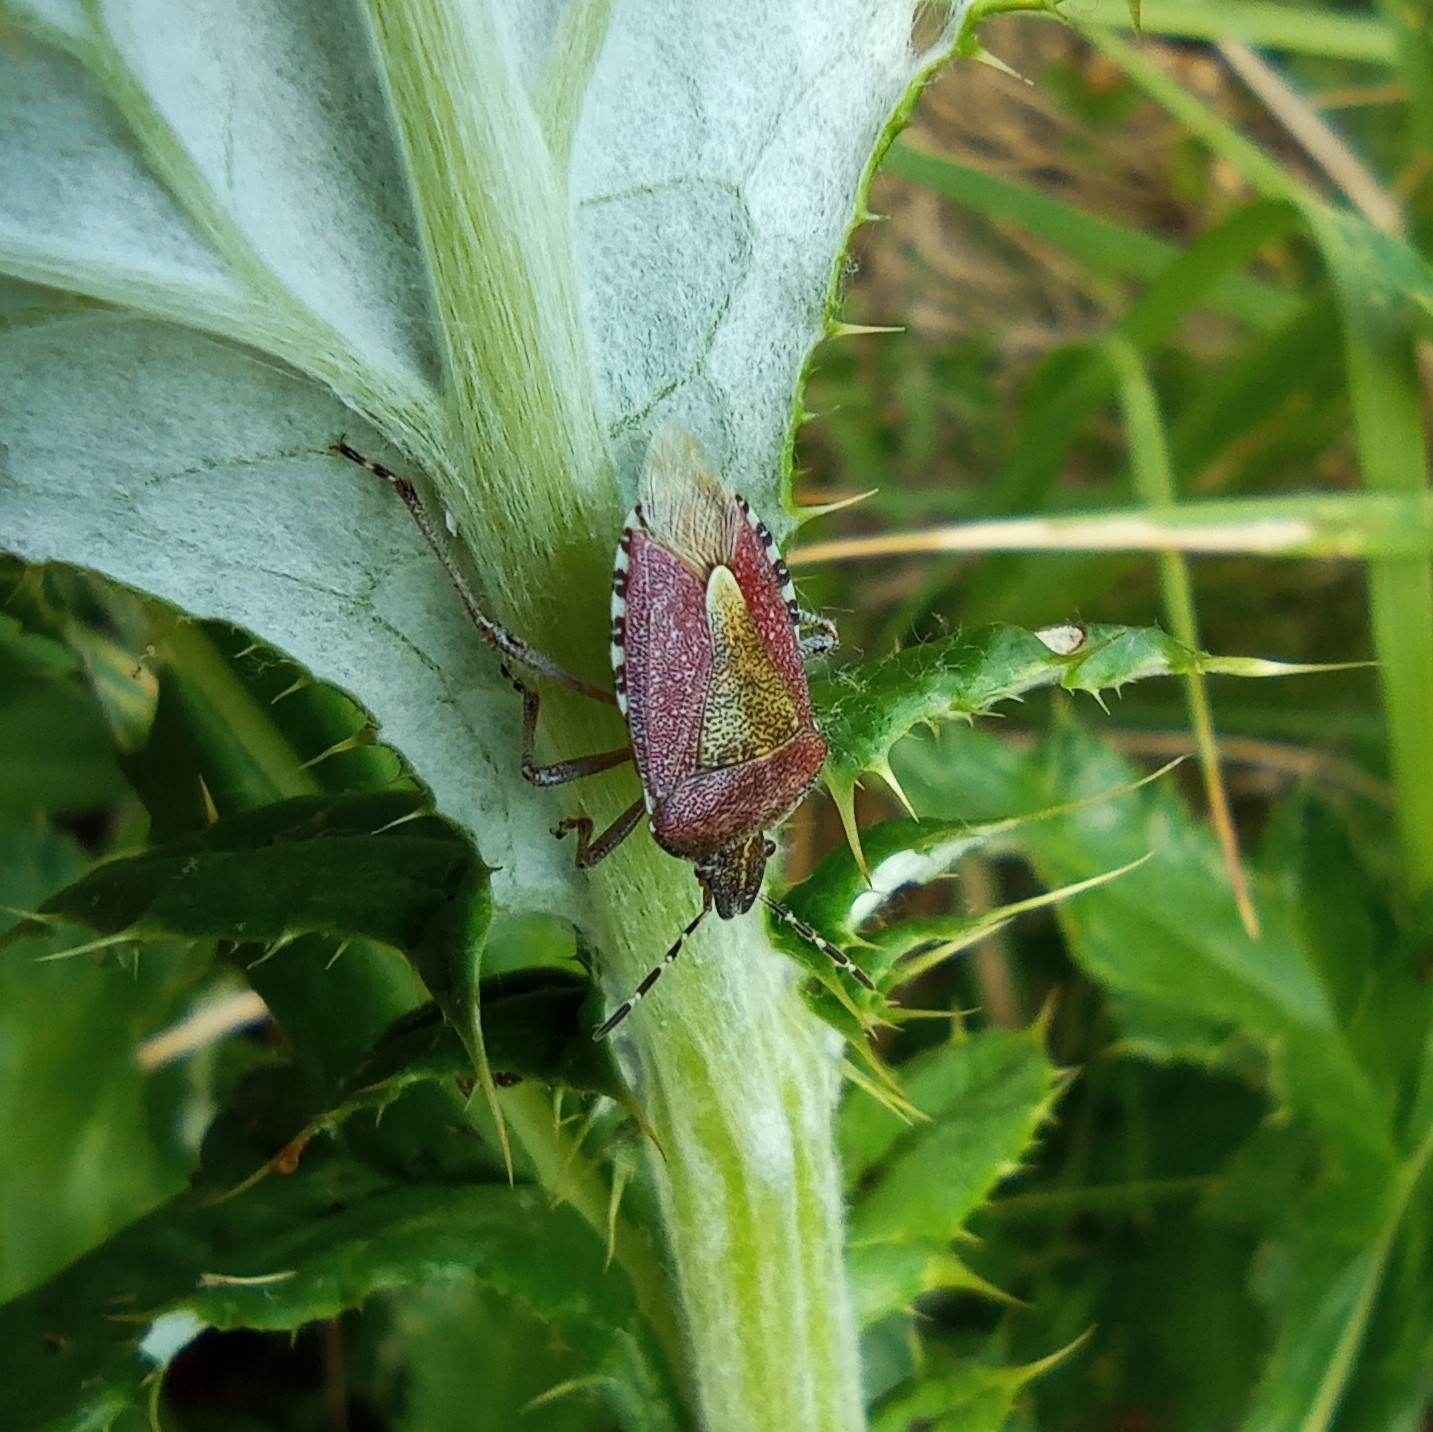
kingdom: Animalia
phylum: Arthropoda
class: Insecta
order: Hemiptera
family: Pentatomidae
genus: Dolycoris
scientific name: Dolycoris baccarum
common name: Sloe bug
